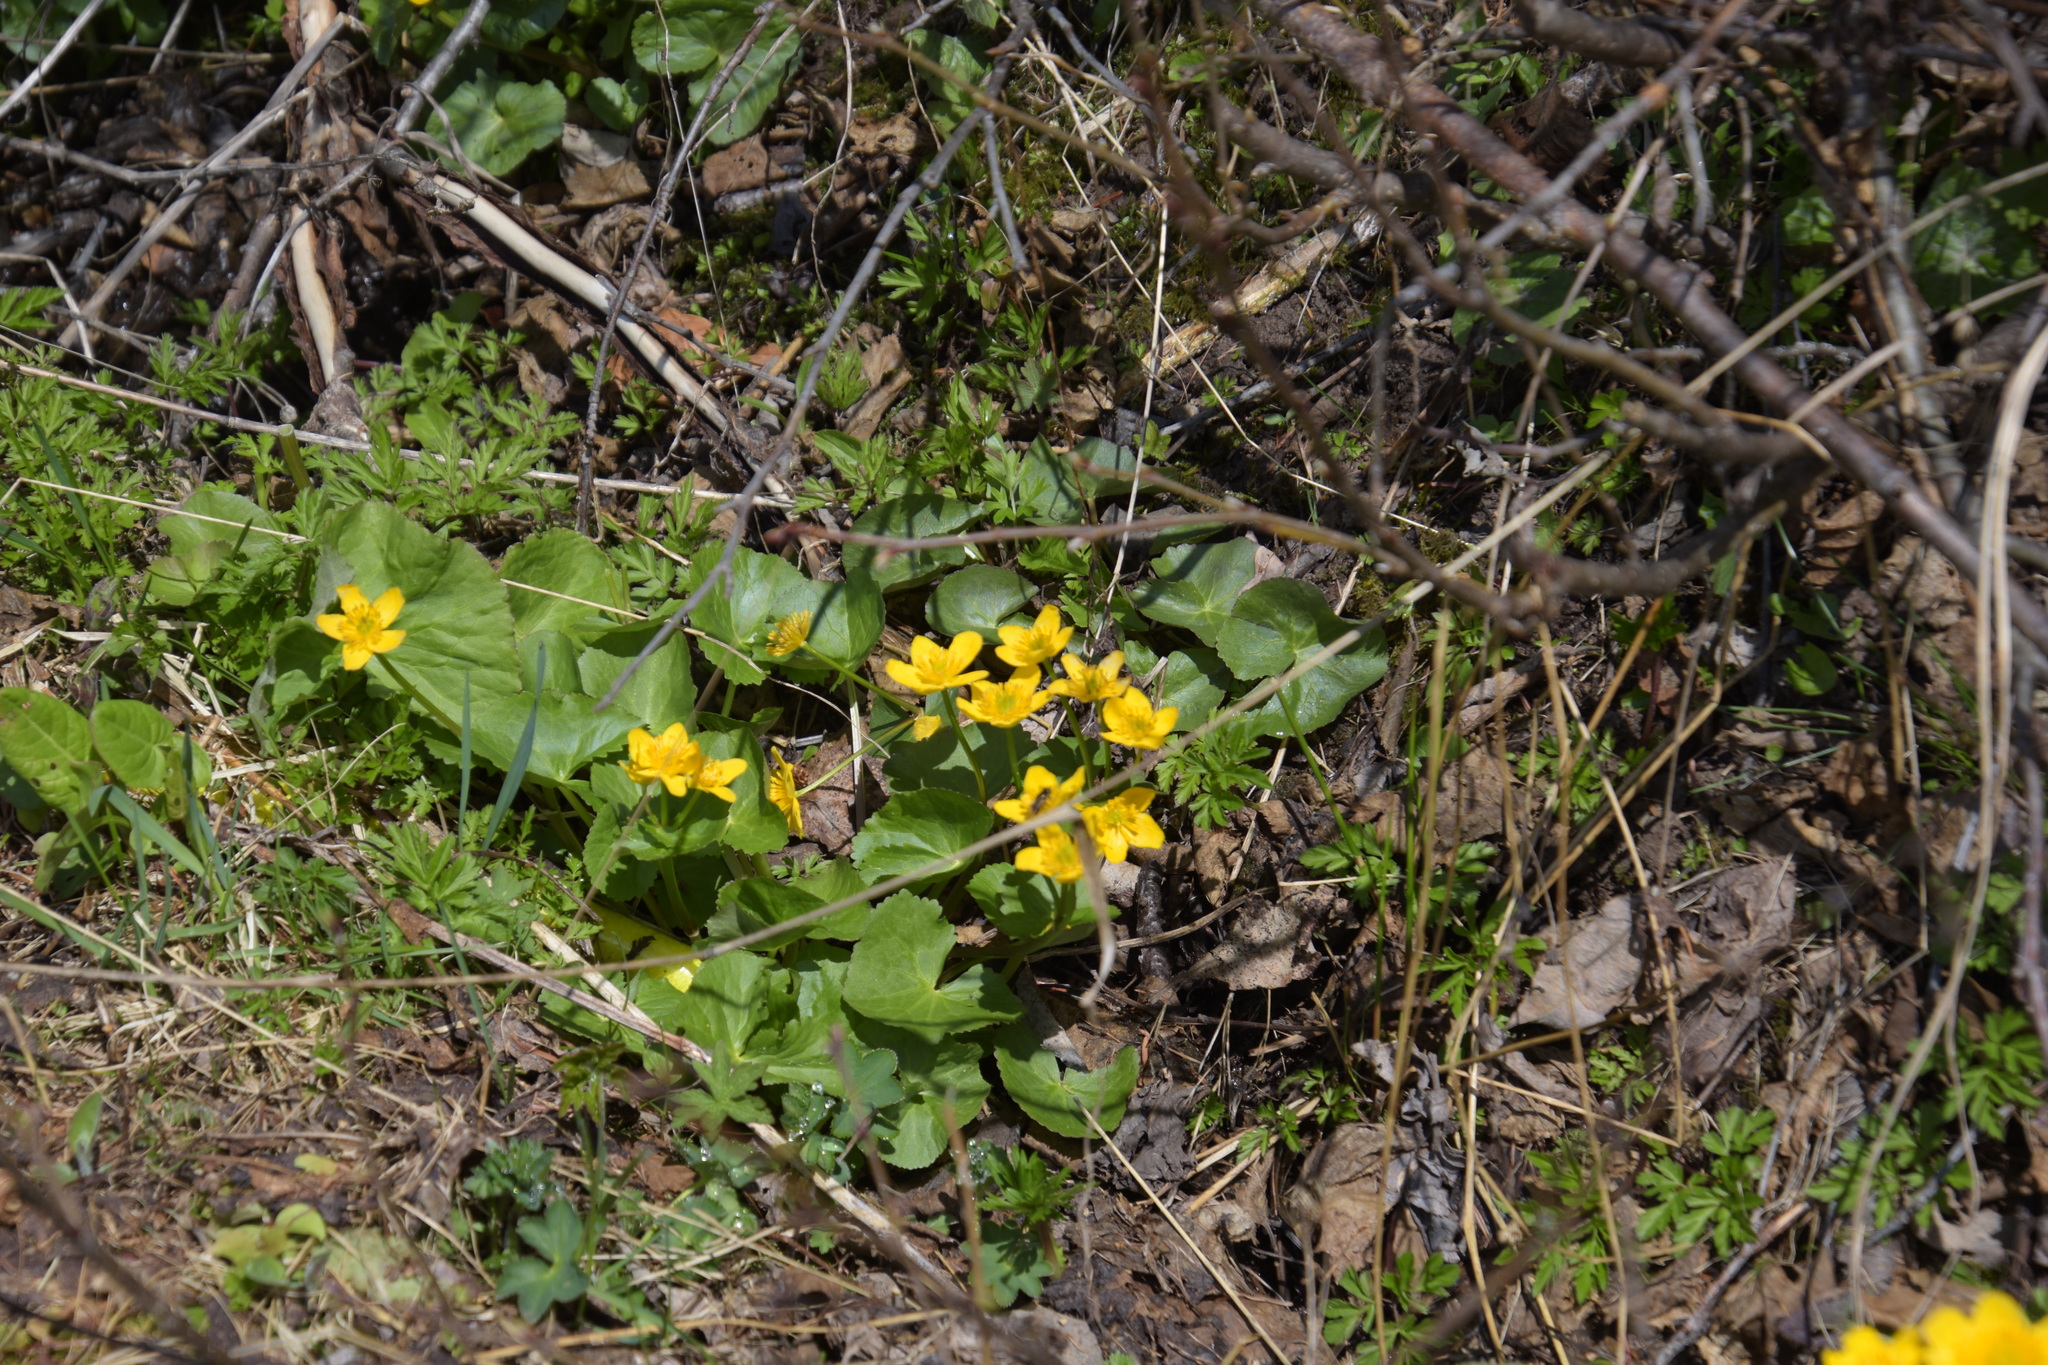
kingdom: Plantae
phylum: Tracheophyta
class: Magnoliopsida
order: Ranunculales
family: Ranunculaceae
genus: Caltha
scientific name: Caltha palustris
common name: Marsh marigold
